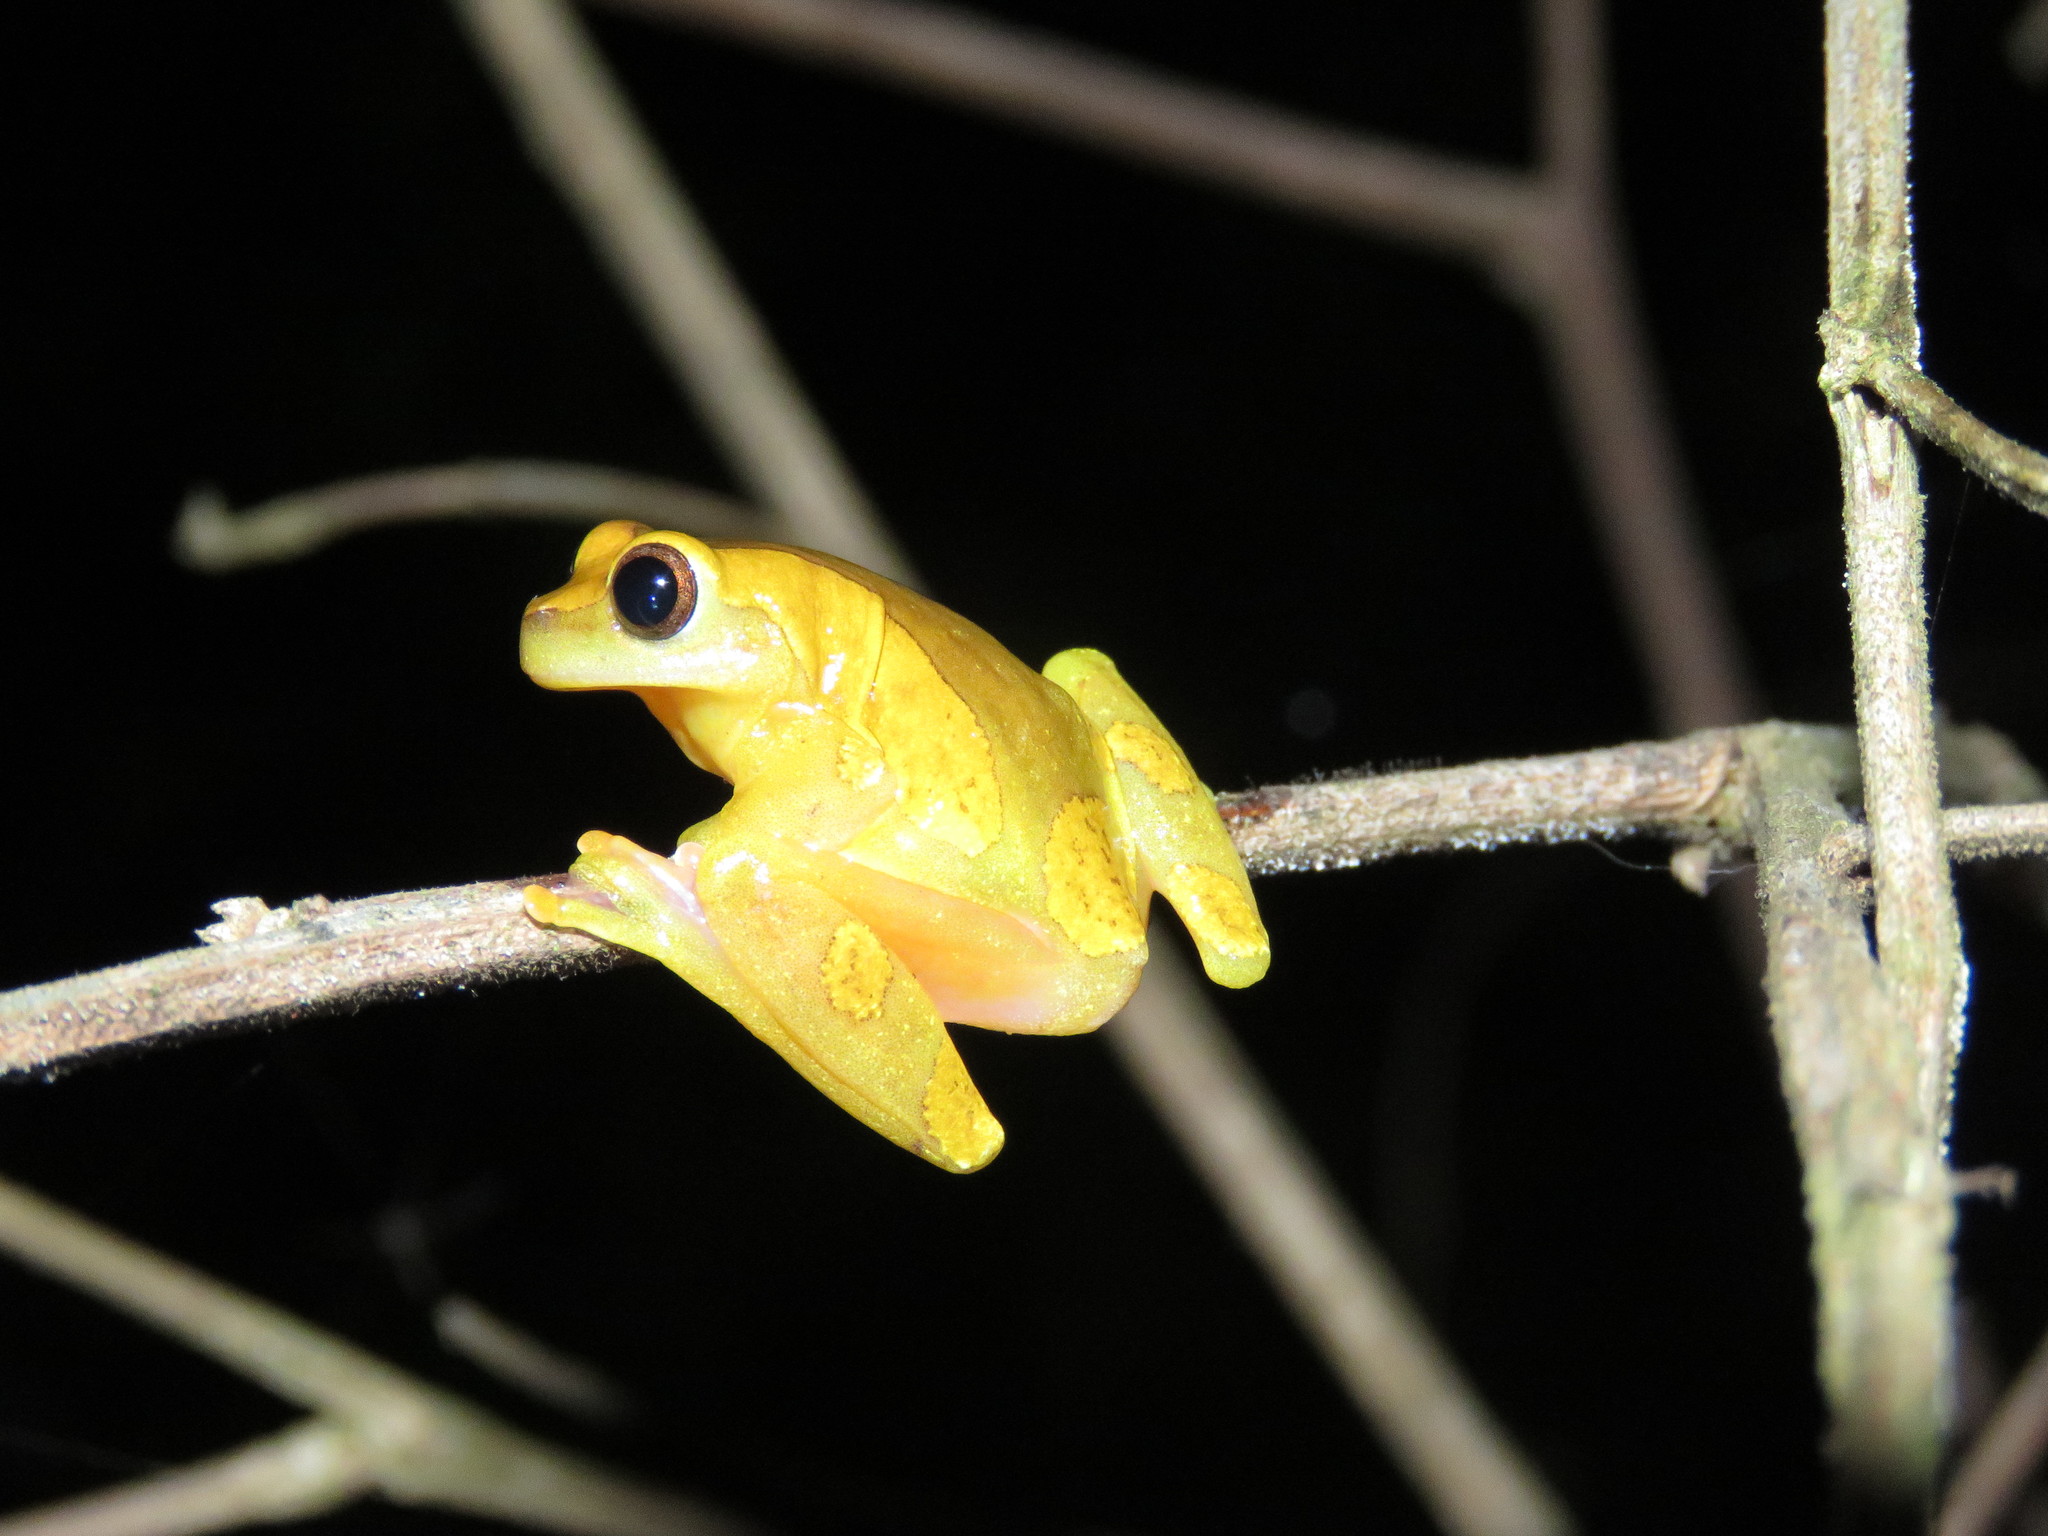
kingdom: Animalia
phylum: Chordata
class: Amphibia
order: Anura
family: Hylidae
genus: Dendropsophus
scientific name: Dendropsophus arndti
